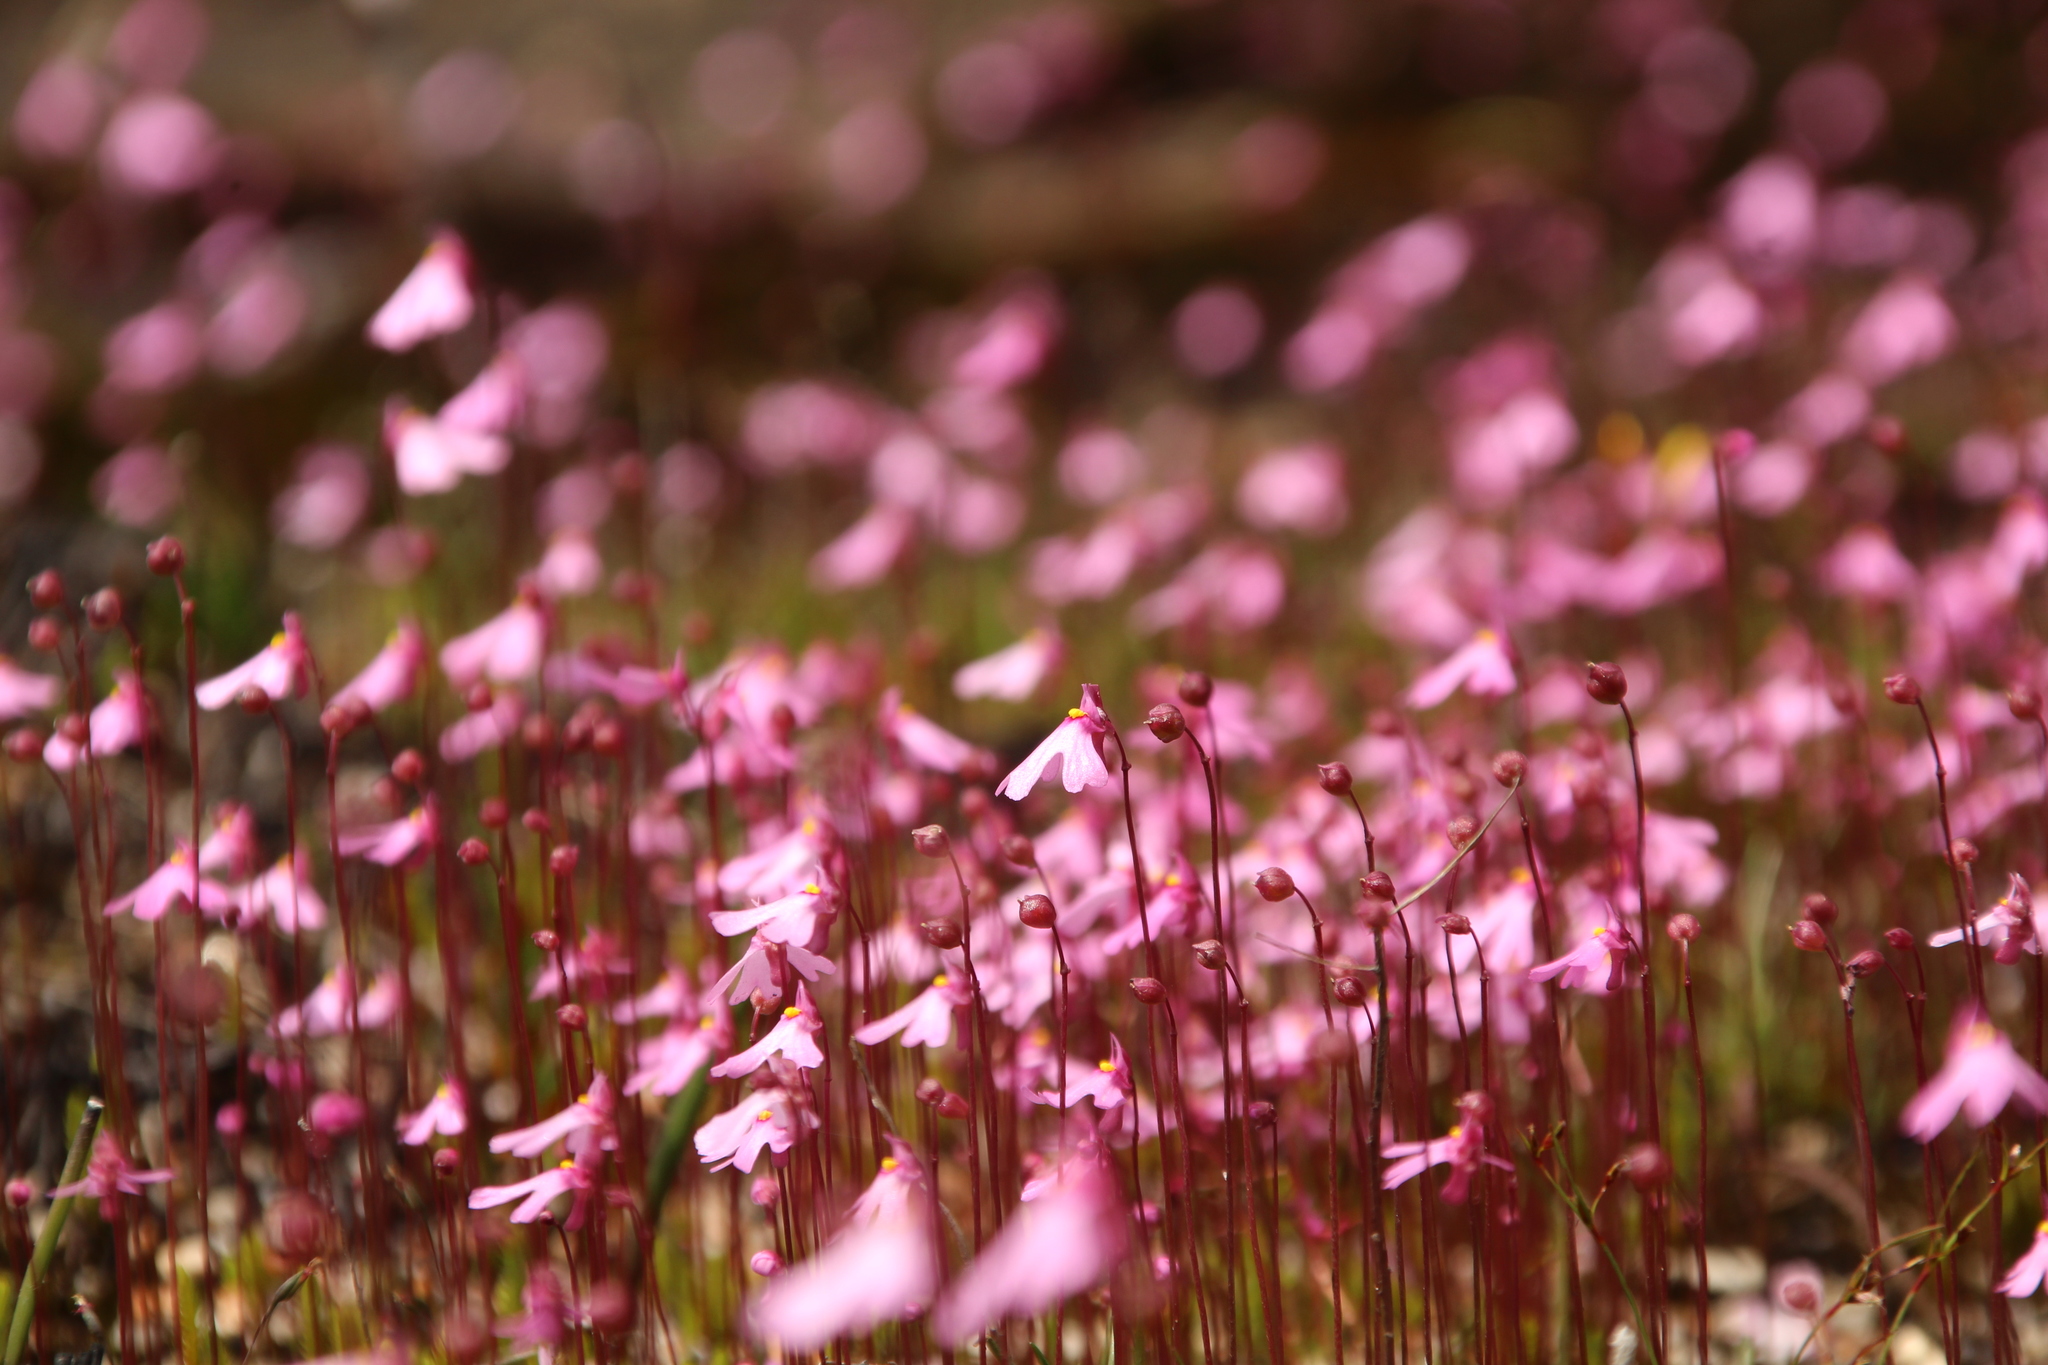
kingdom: Plantae
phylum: Tracheophyta
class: Magnoliopsida
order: Lamiales
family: Lentibulariaceae
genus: Utricularia
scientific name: Utricularia multifida
